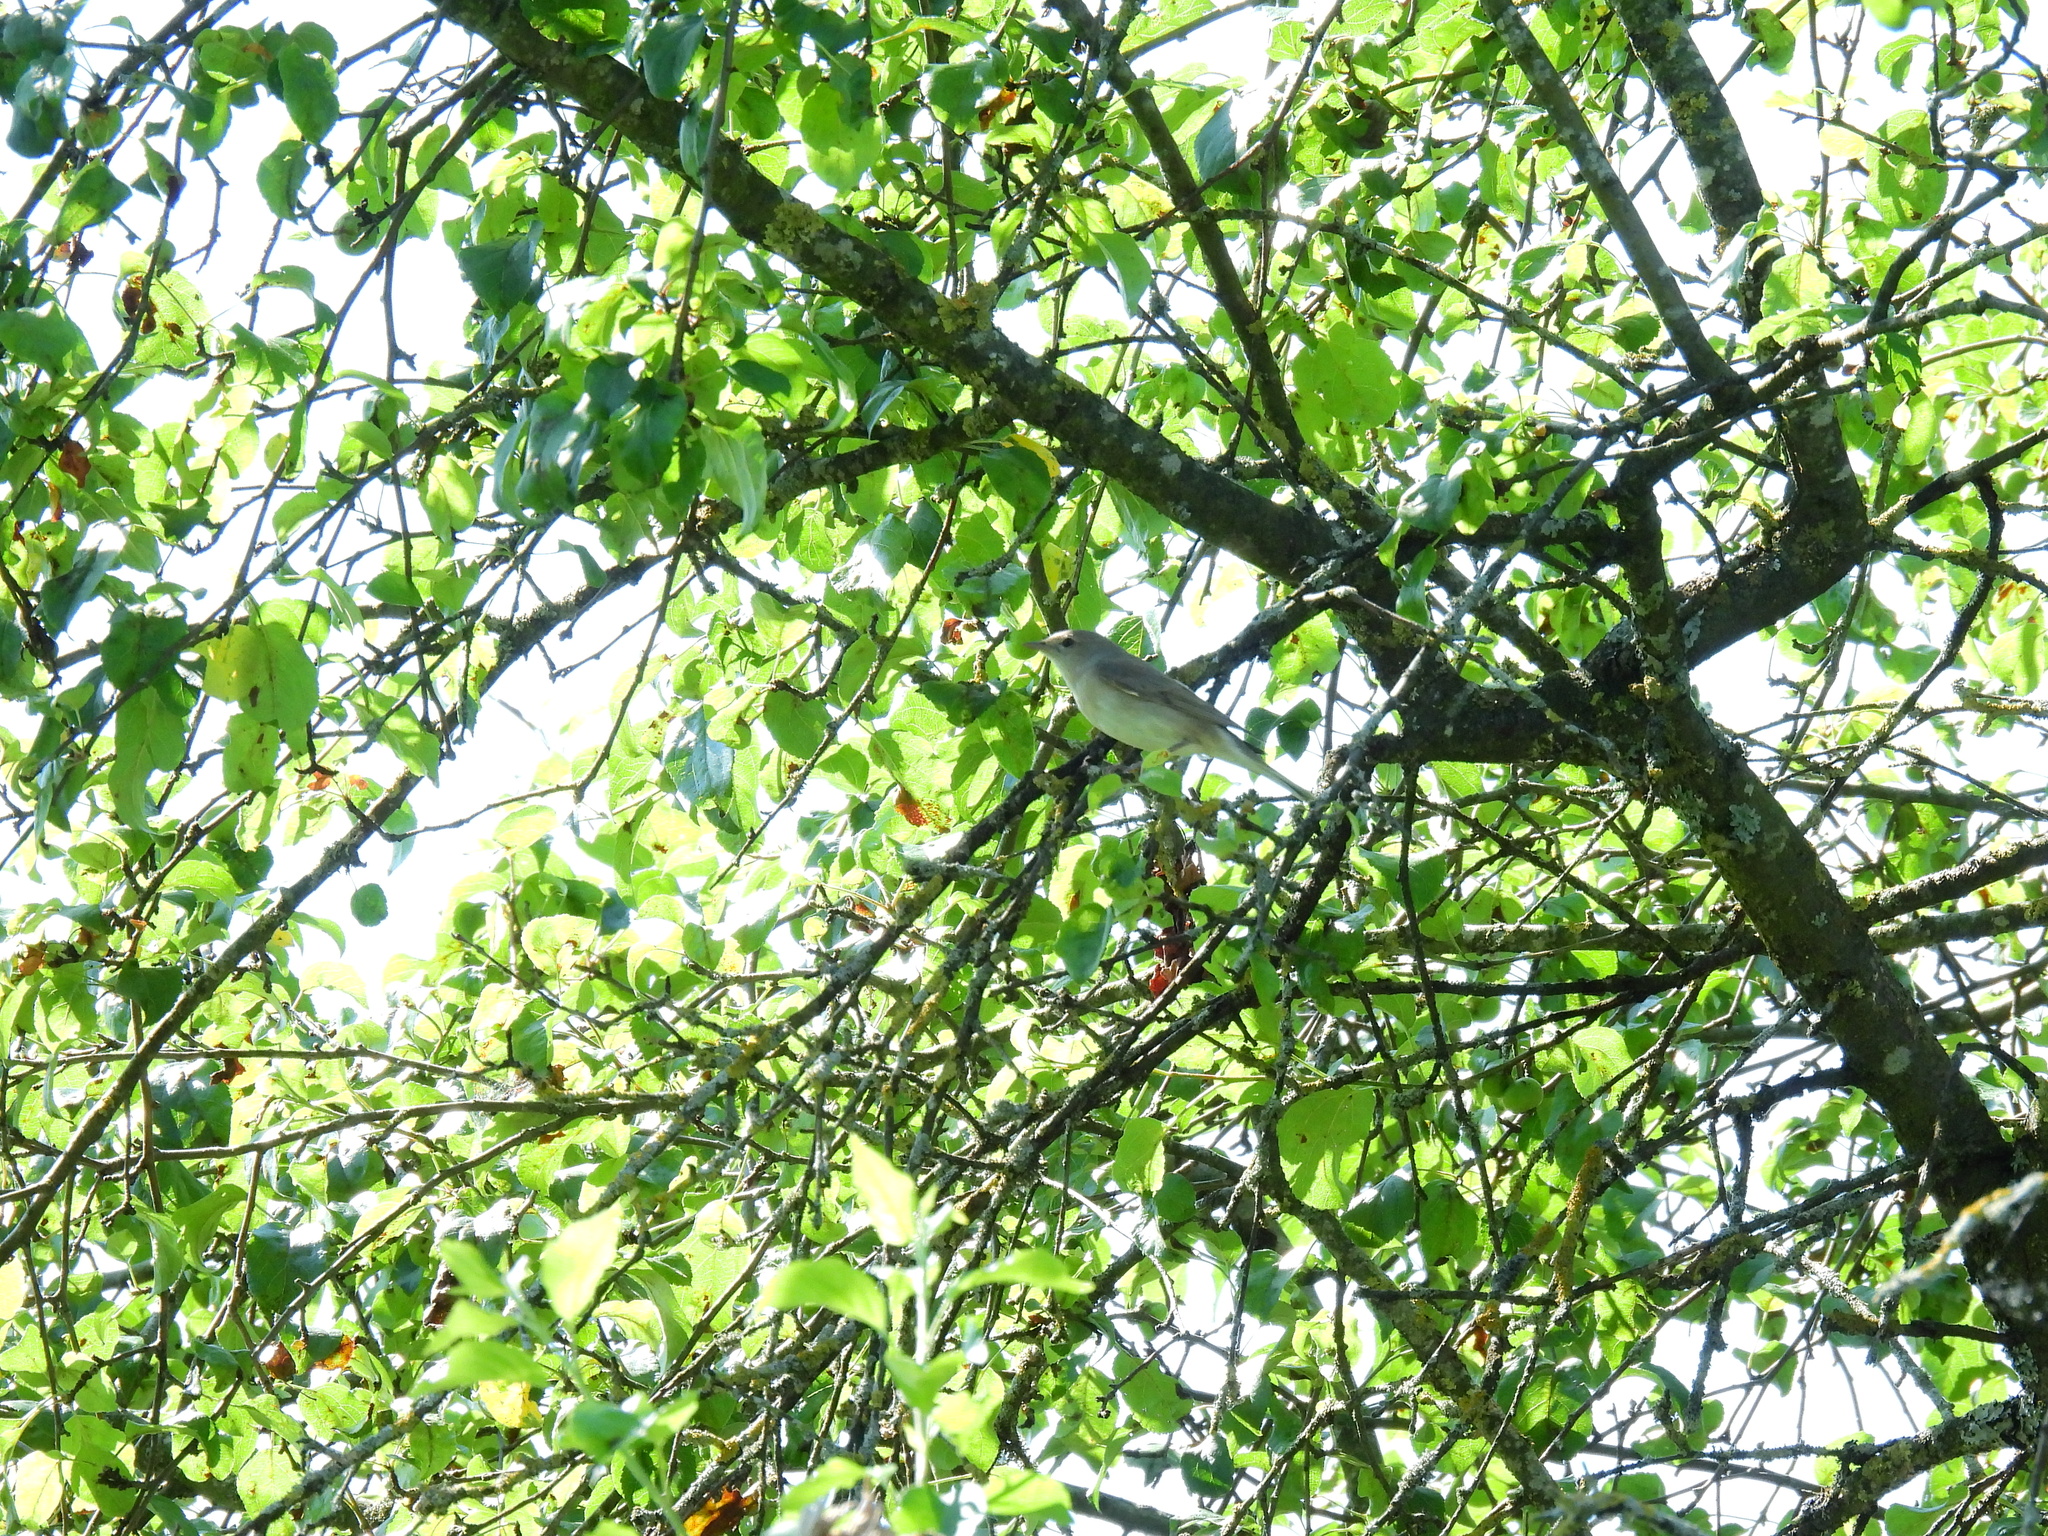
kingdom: Animalia
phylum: Chordata
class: Aves
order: Passeriformes
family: Sylviidae
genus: Sylvia
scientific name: Sylvia borin
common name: Garden warbler
